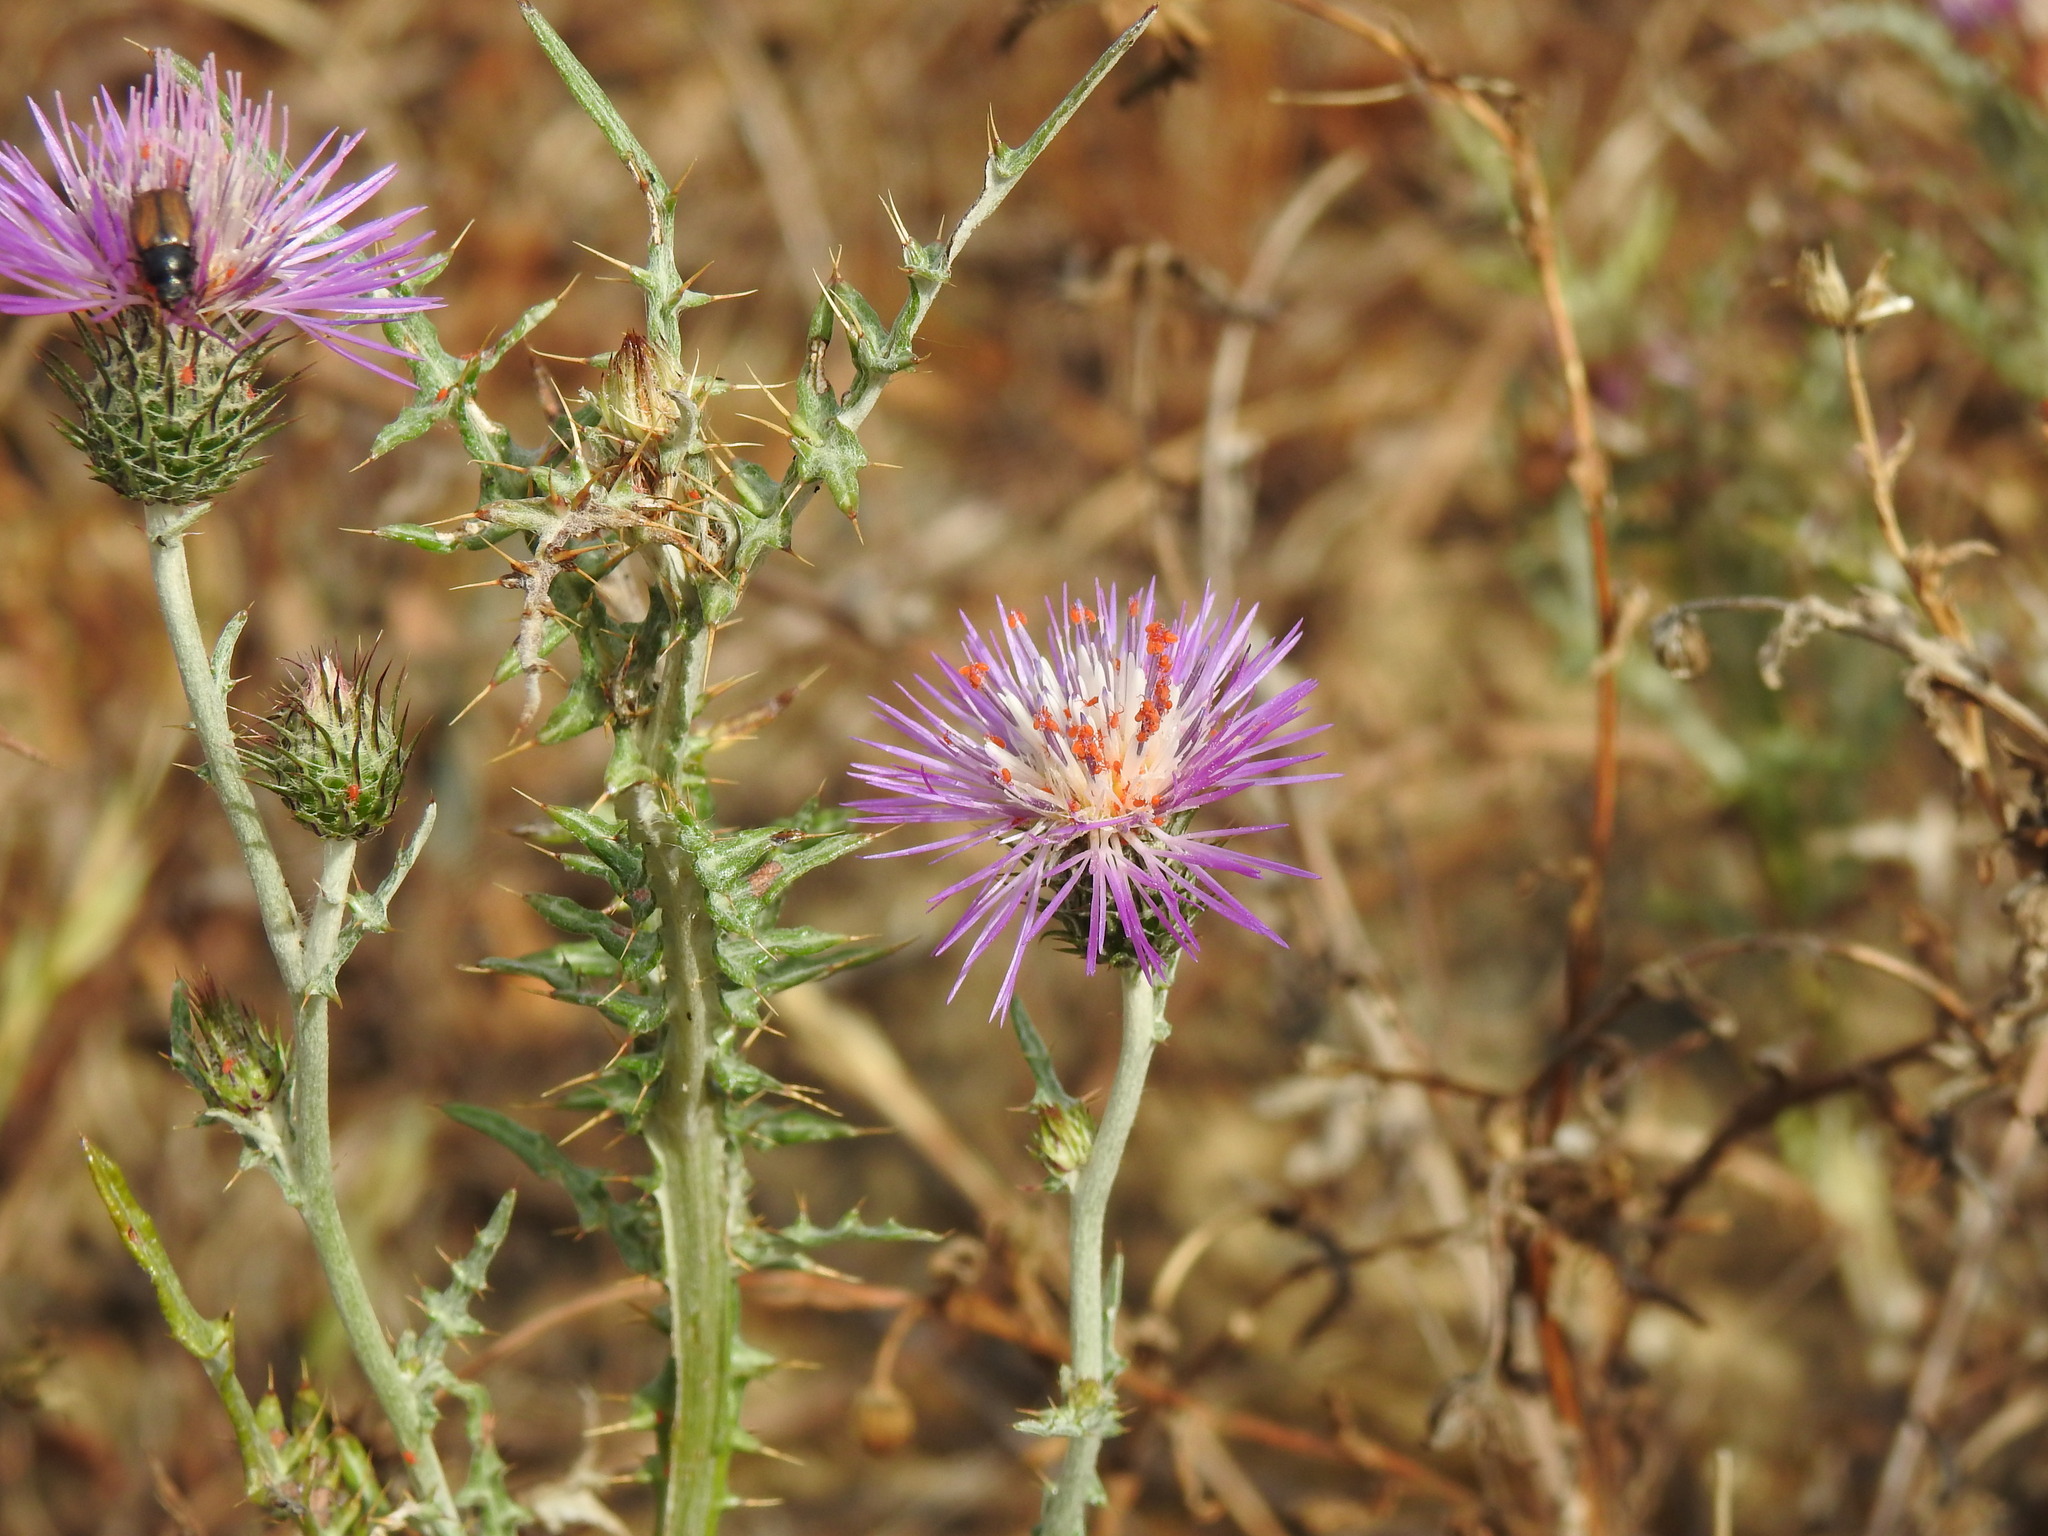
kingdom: Plantae
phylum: Tracheophyta
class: Magnoliopsida
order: Asterales
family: Asteraceae
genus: Galactites
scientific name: Galactites tomentosa
